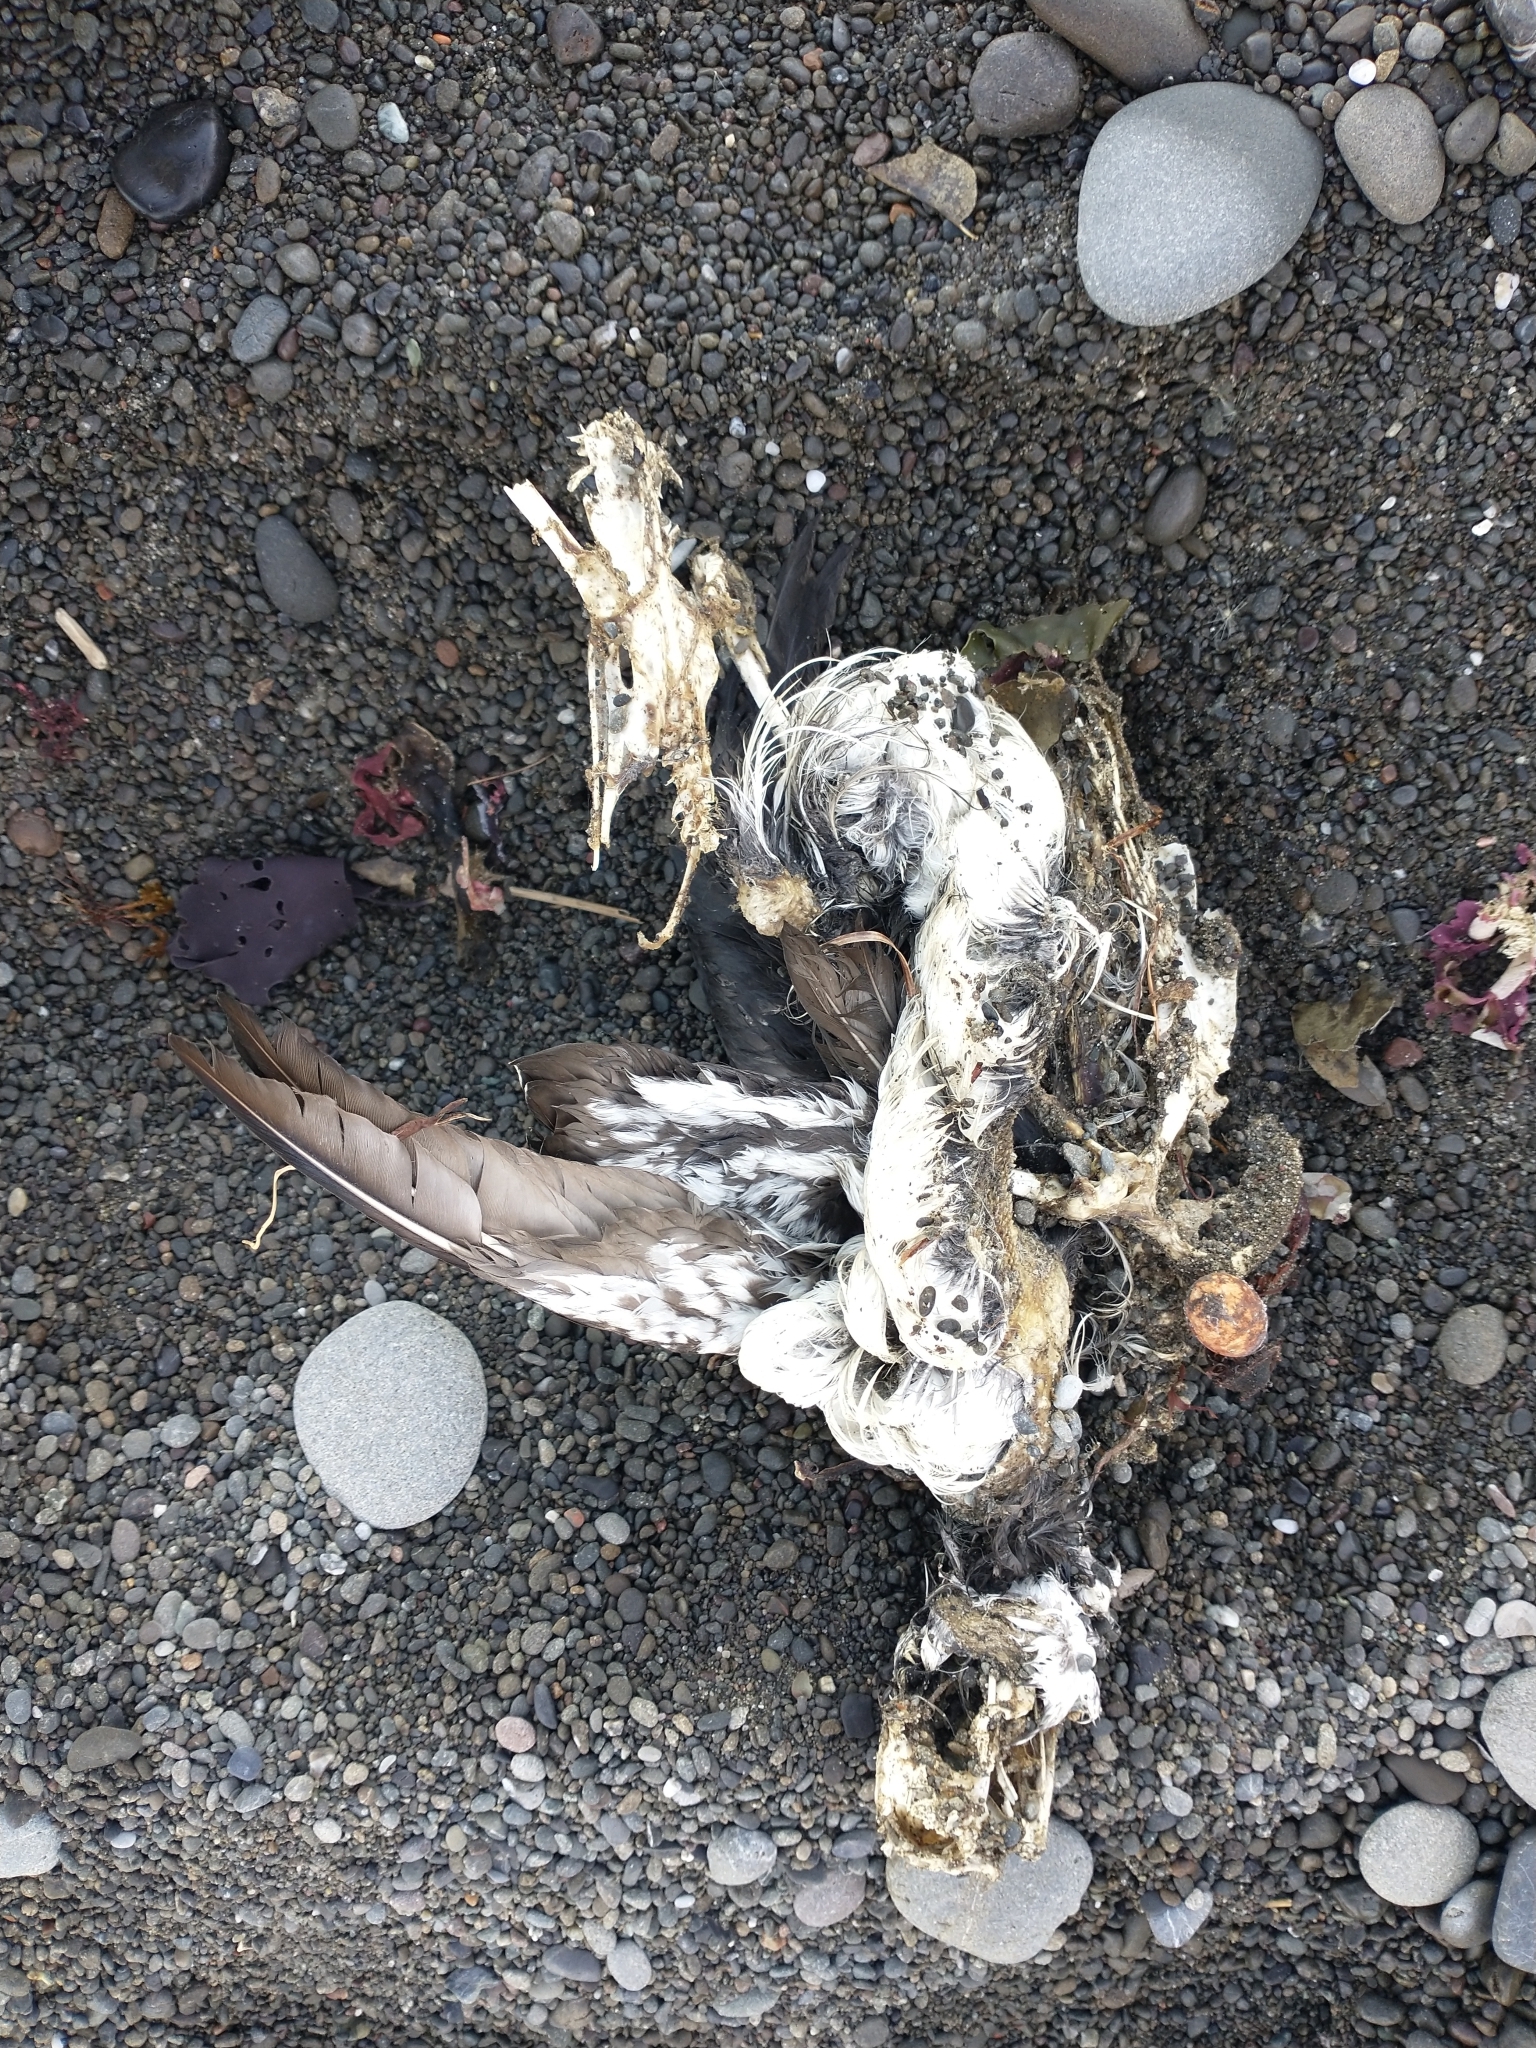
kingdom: Animalia
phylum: Chordata
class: Aves
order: Charadriiformes
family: Alcidae
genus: Uria
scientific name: Uria aalge
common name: Common murre
